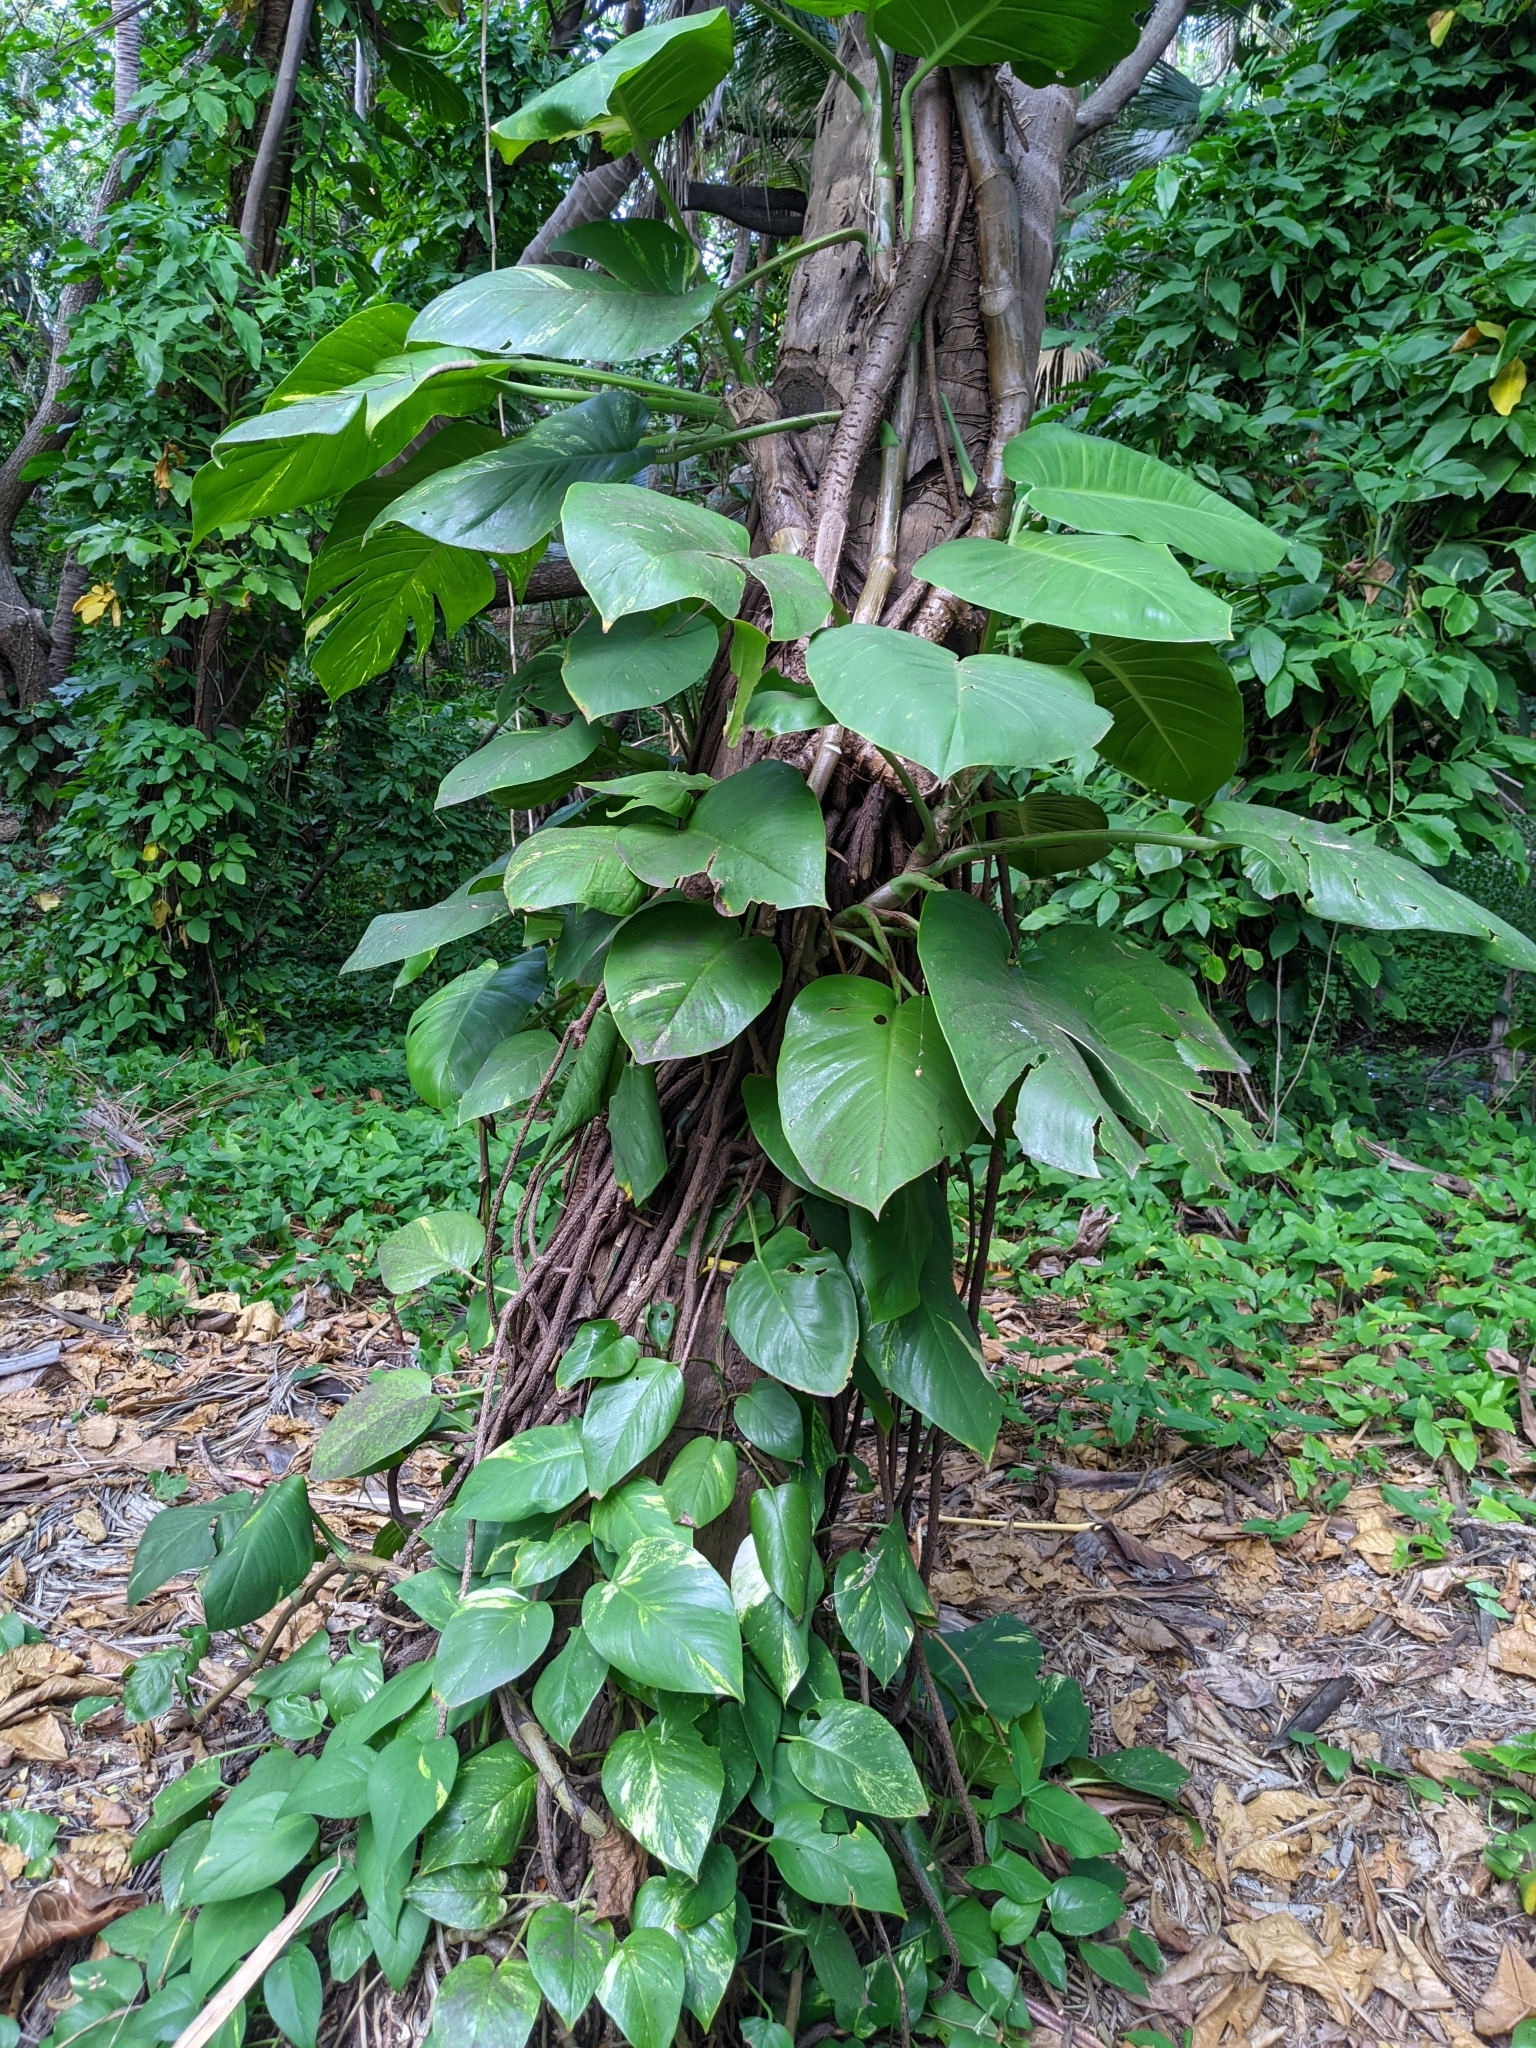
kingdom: Plantae
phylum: Tracheophyta
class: Liliopsida
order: Alismatales
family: Araceae
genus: Epipremnum
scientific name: Epipremnum aureum
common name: Golden hunter's-robe
